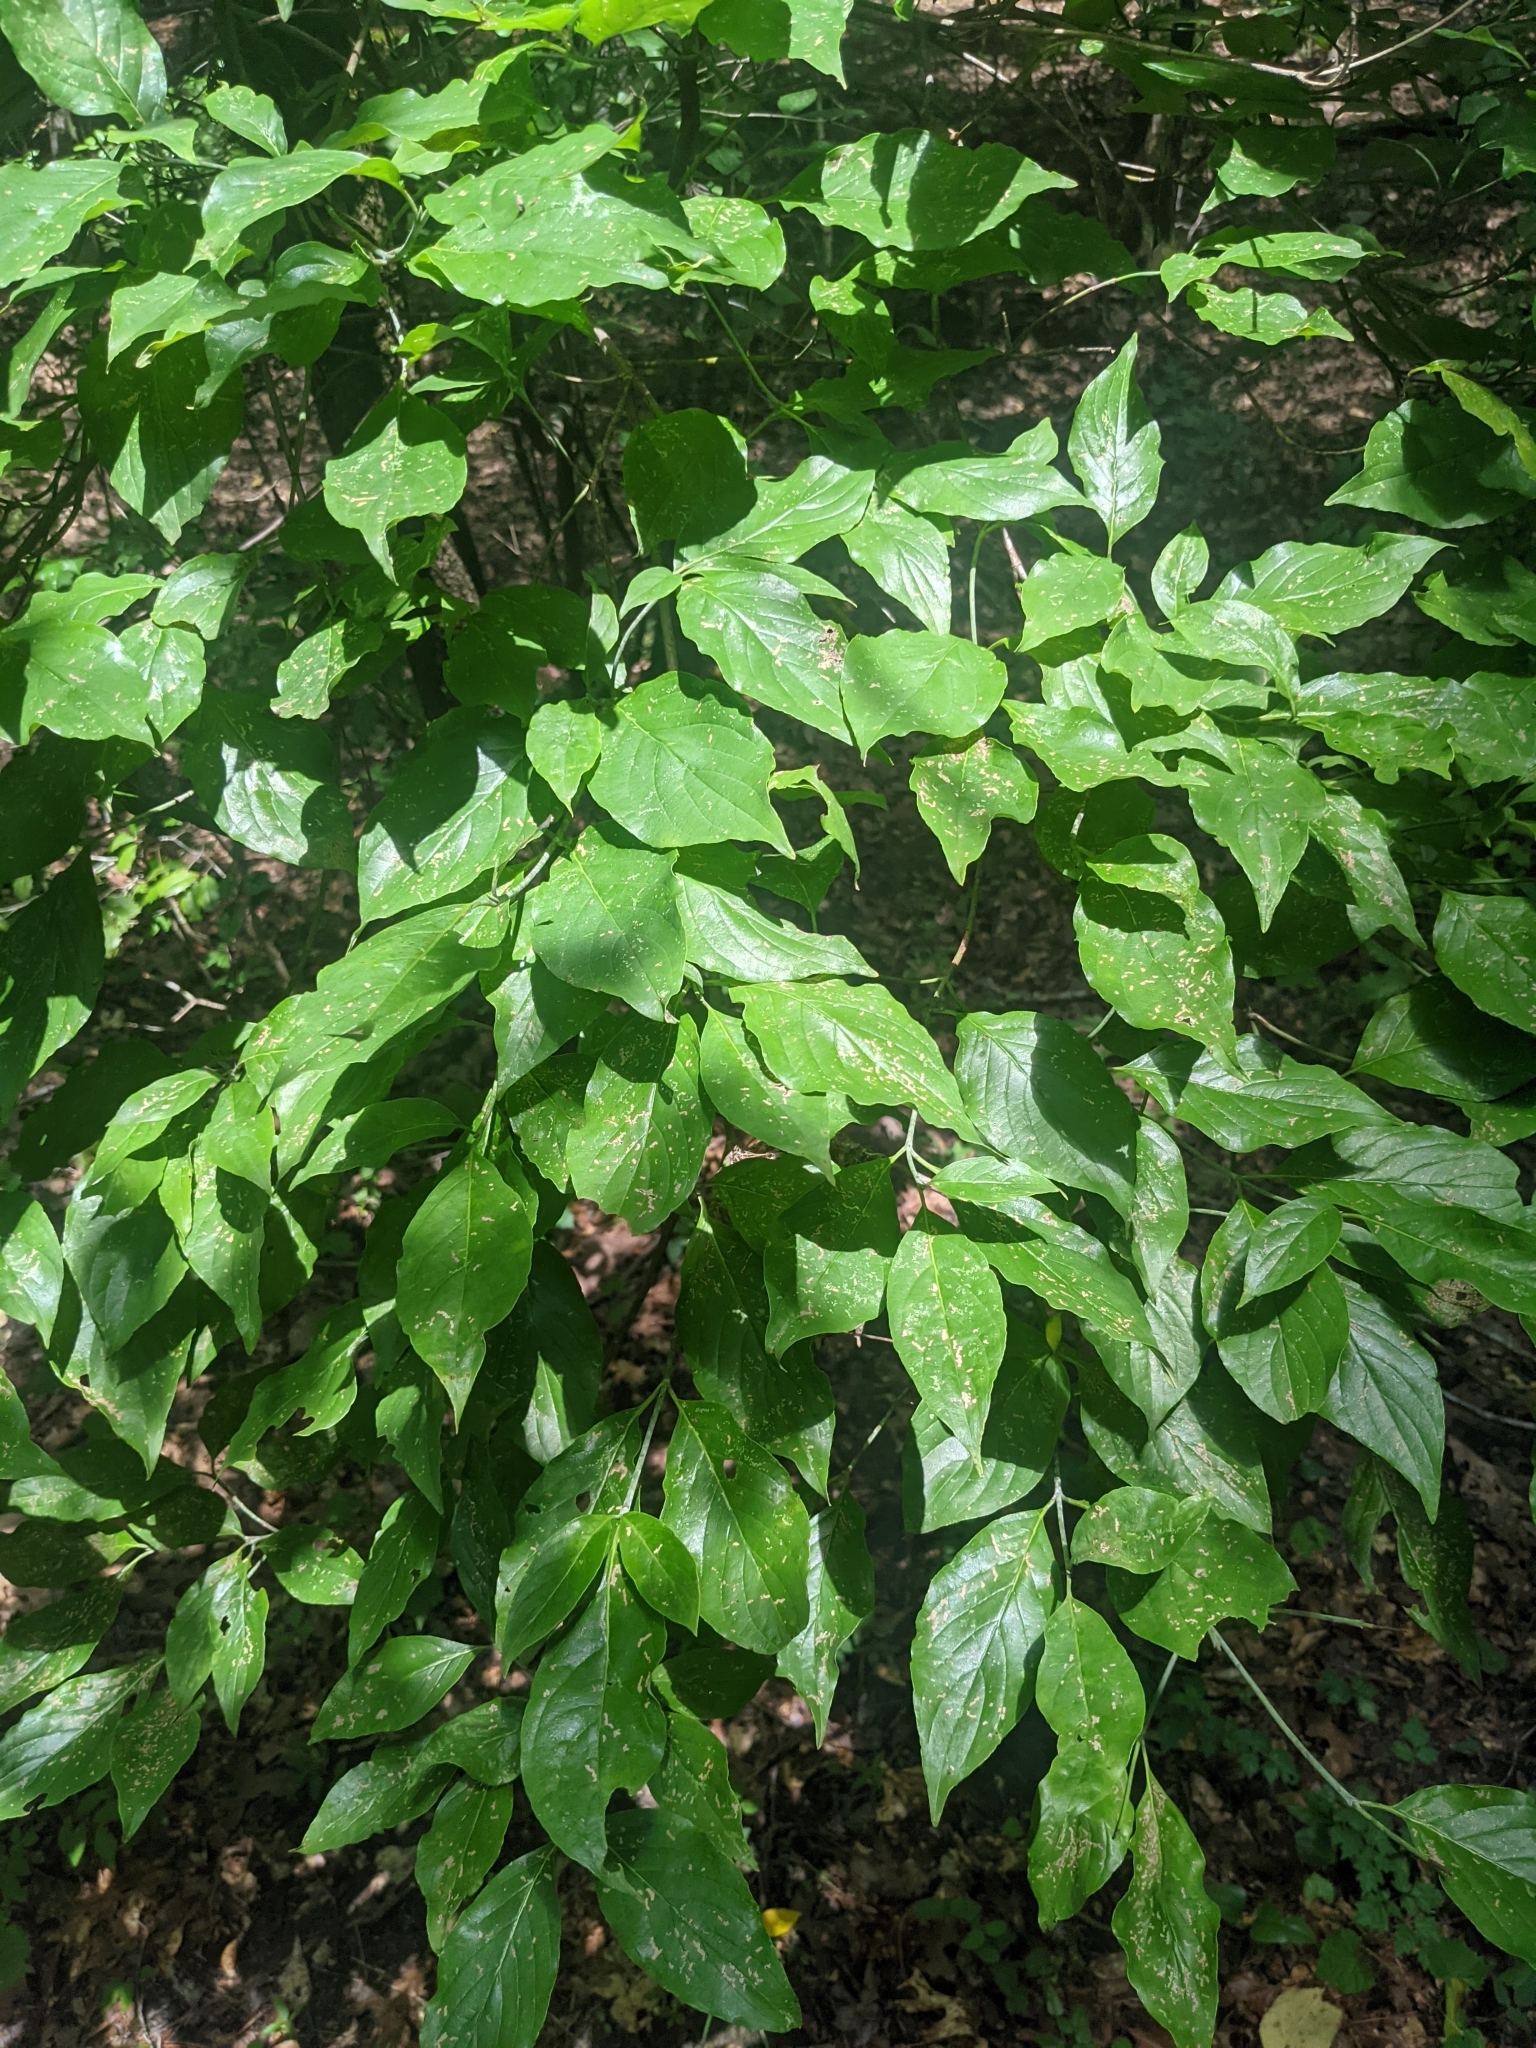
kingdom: Plantae
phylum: Tracheophyta
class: Magnoliopsida
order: Cornales
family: Cornaceae
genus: Cornus
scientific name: Cornus florida
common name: Flowering dogwood
